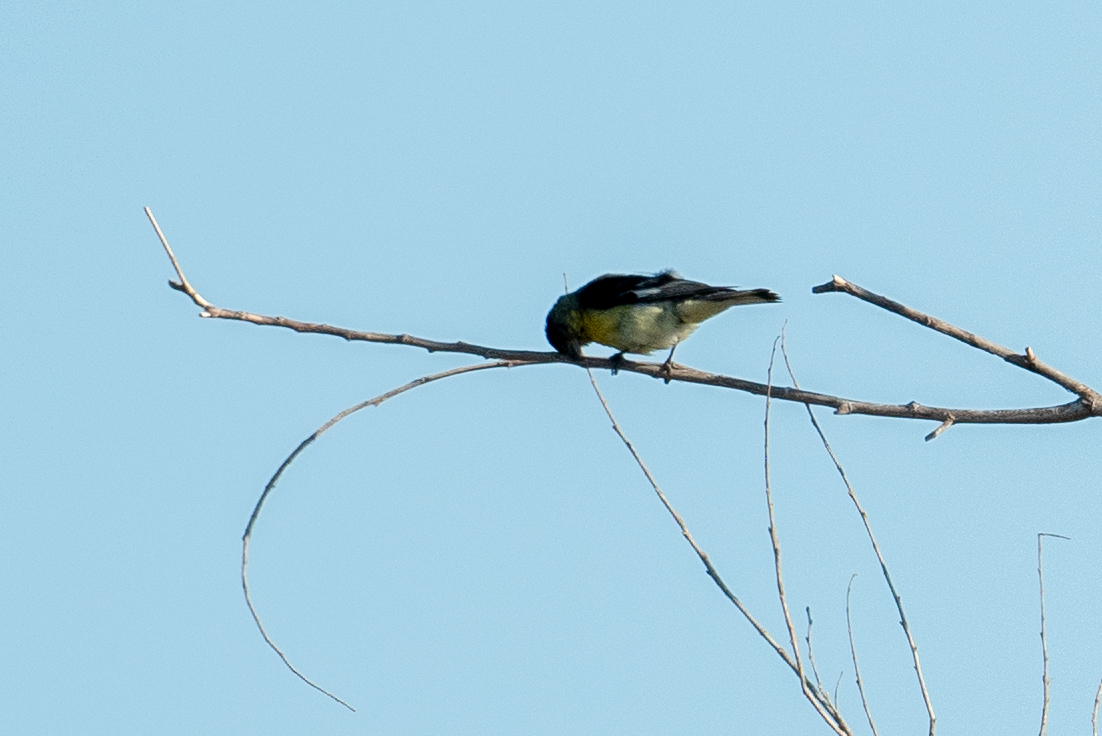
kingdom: Animalia
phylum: Chordata
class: Aves
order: Passeriformes
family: Fringillidae
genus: Spinus
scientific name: Spinus psaltria
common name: Lesser goldfinch
